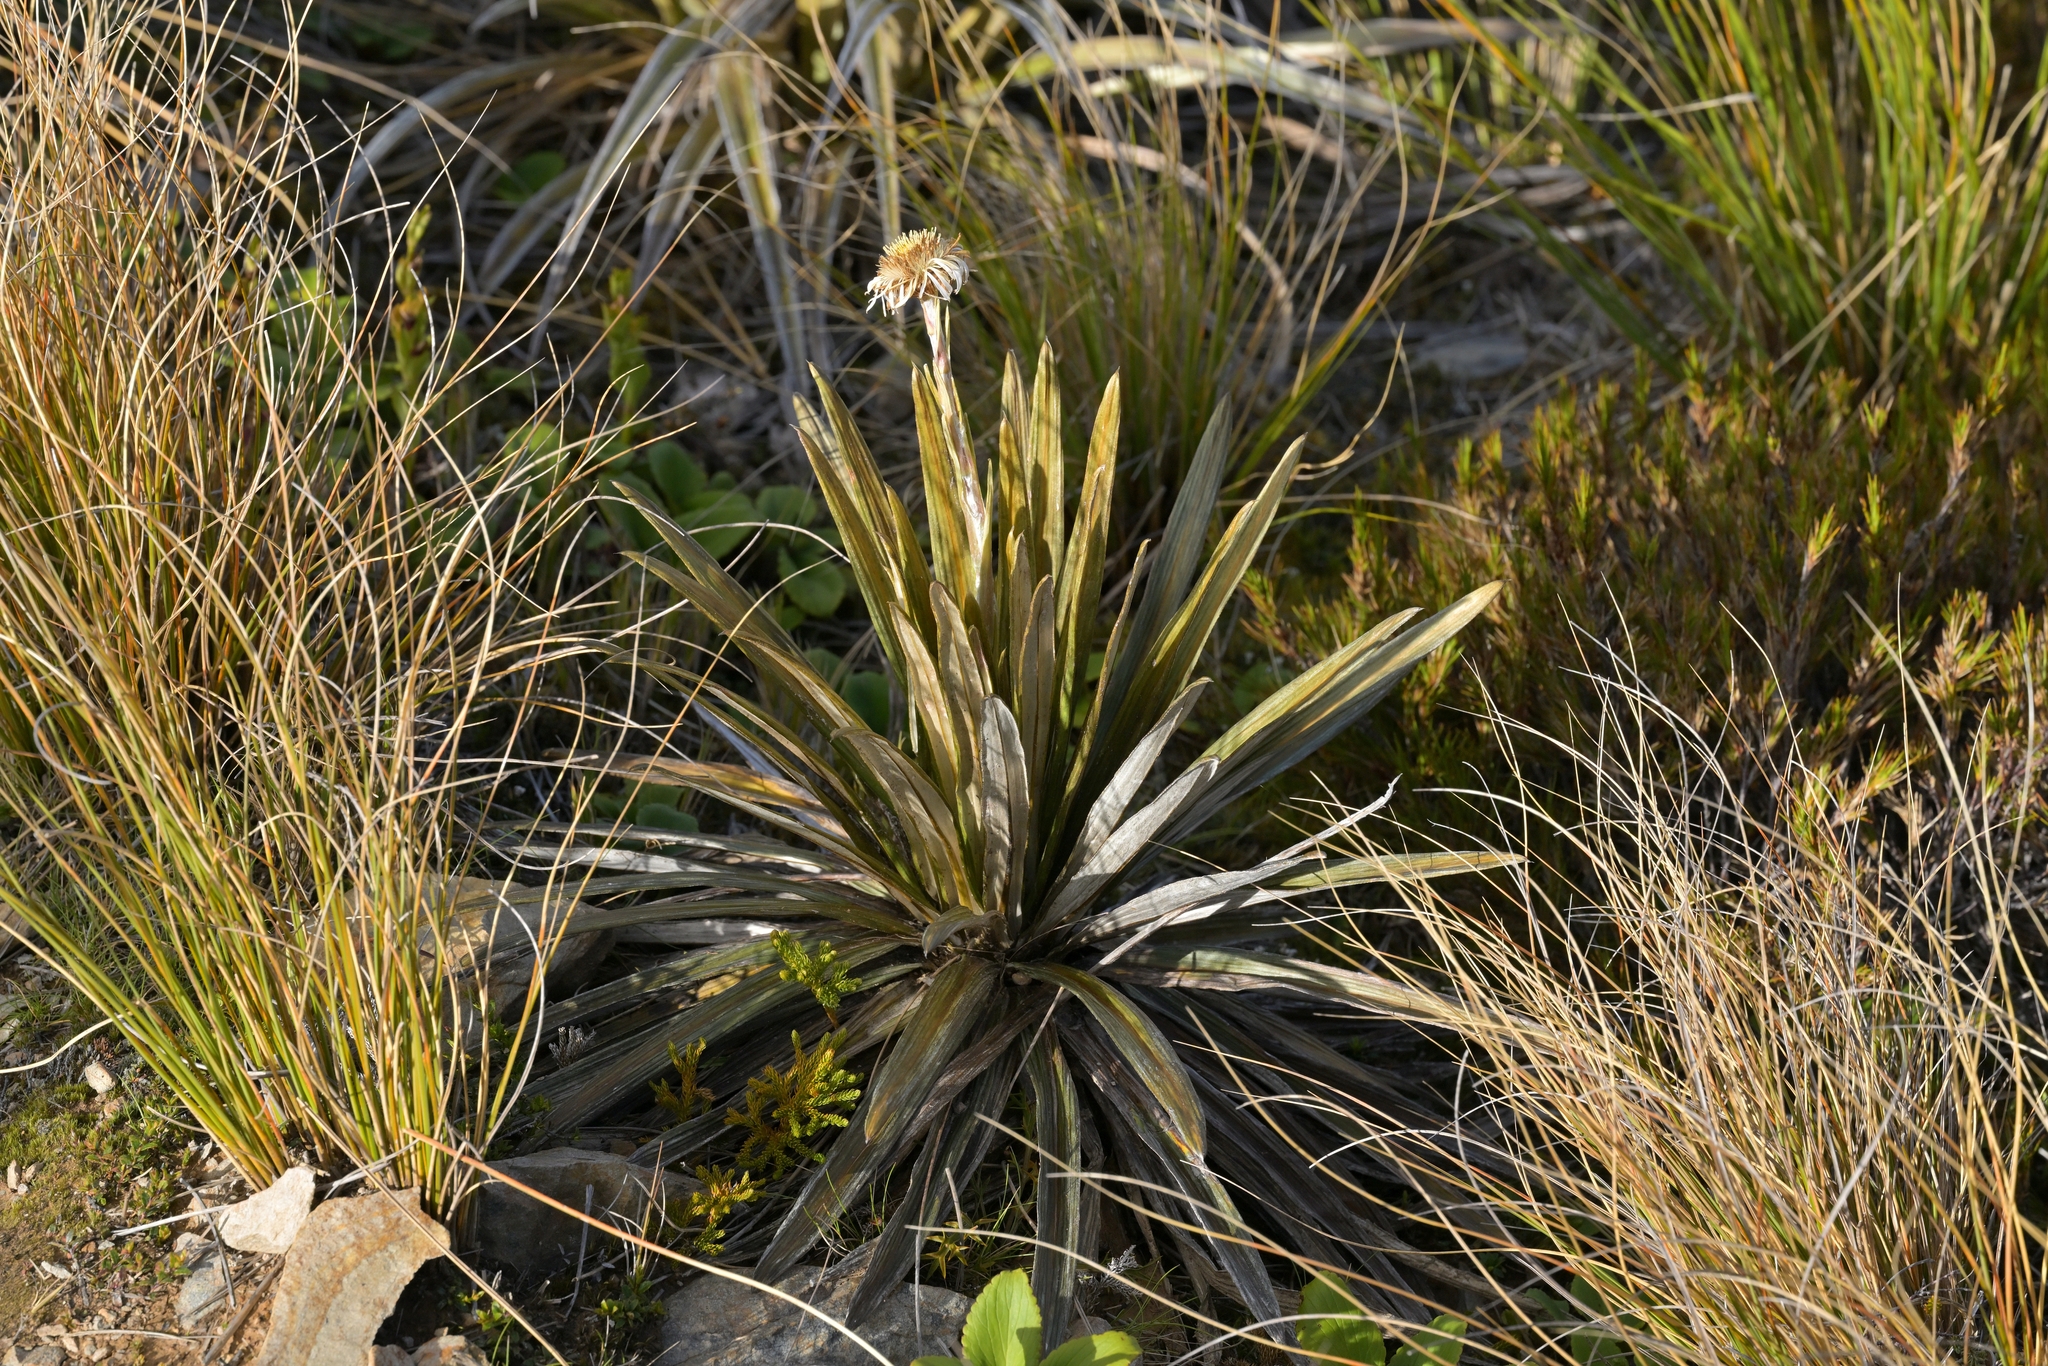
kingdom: Plantae
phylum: Tracheophyta
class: Magnoliopsida
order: Asterales
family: Asteraceae
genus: Celmisia
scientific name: Celmisia armstrongii
